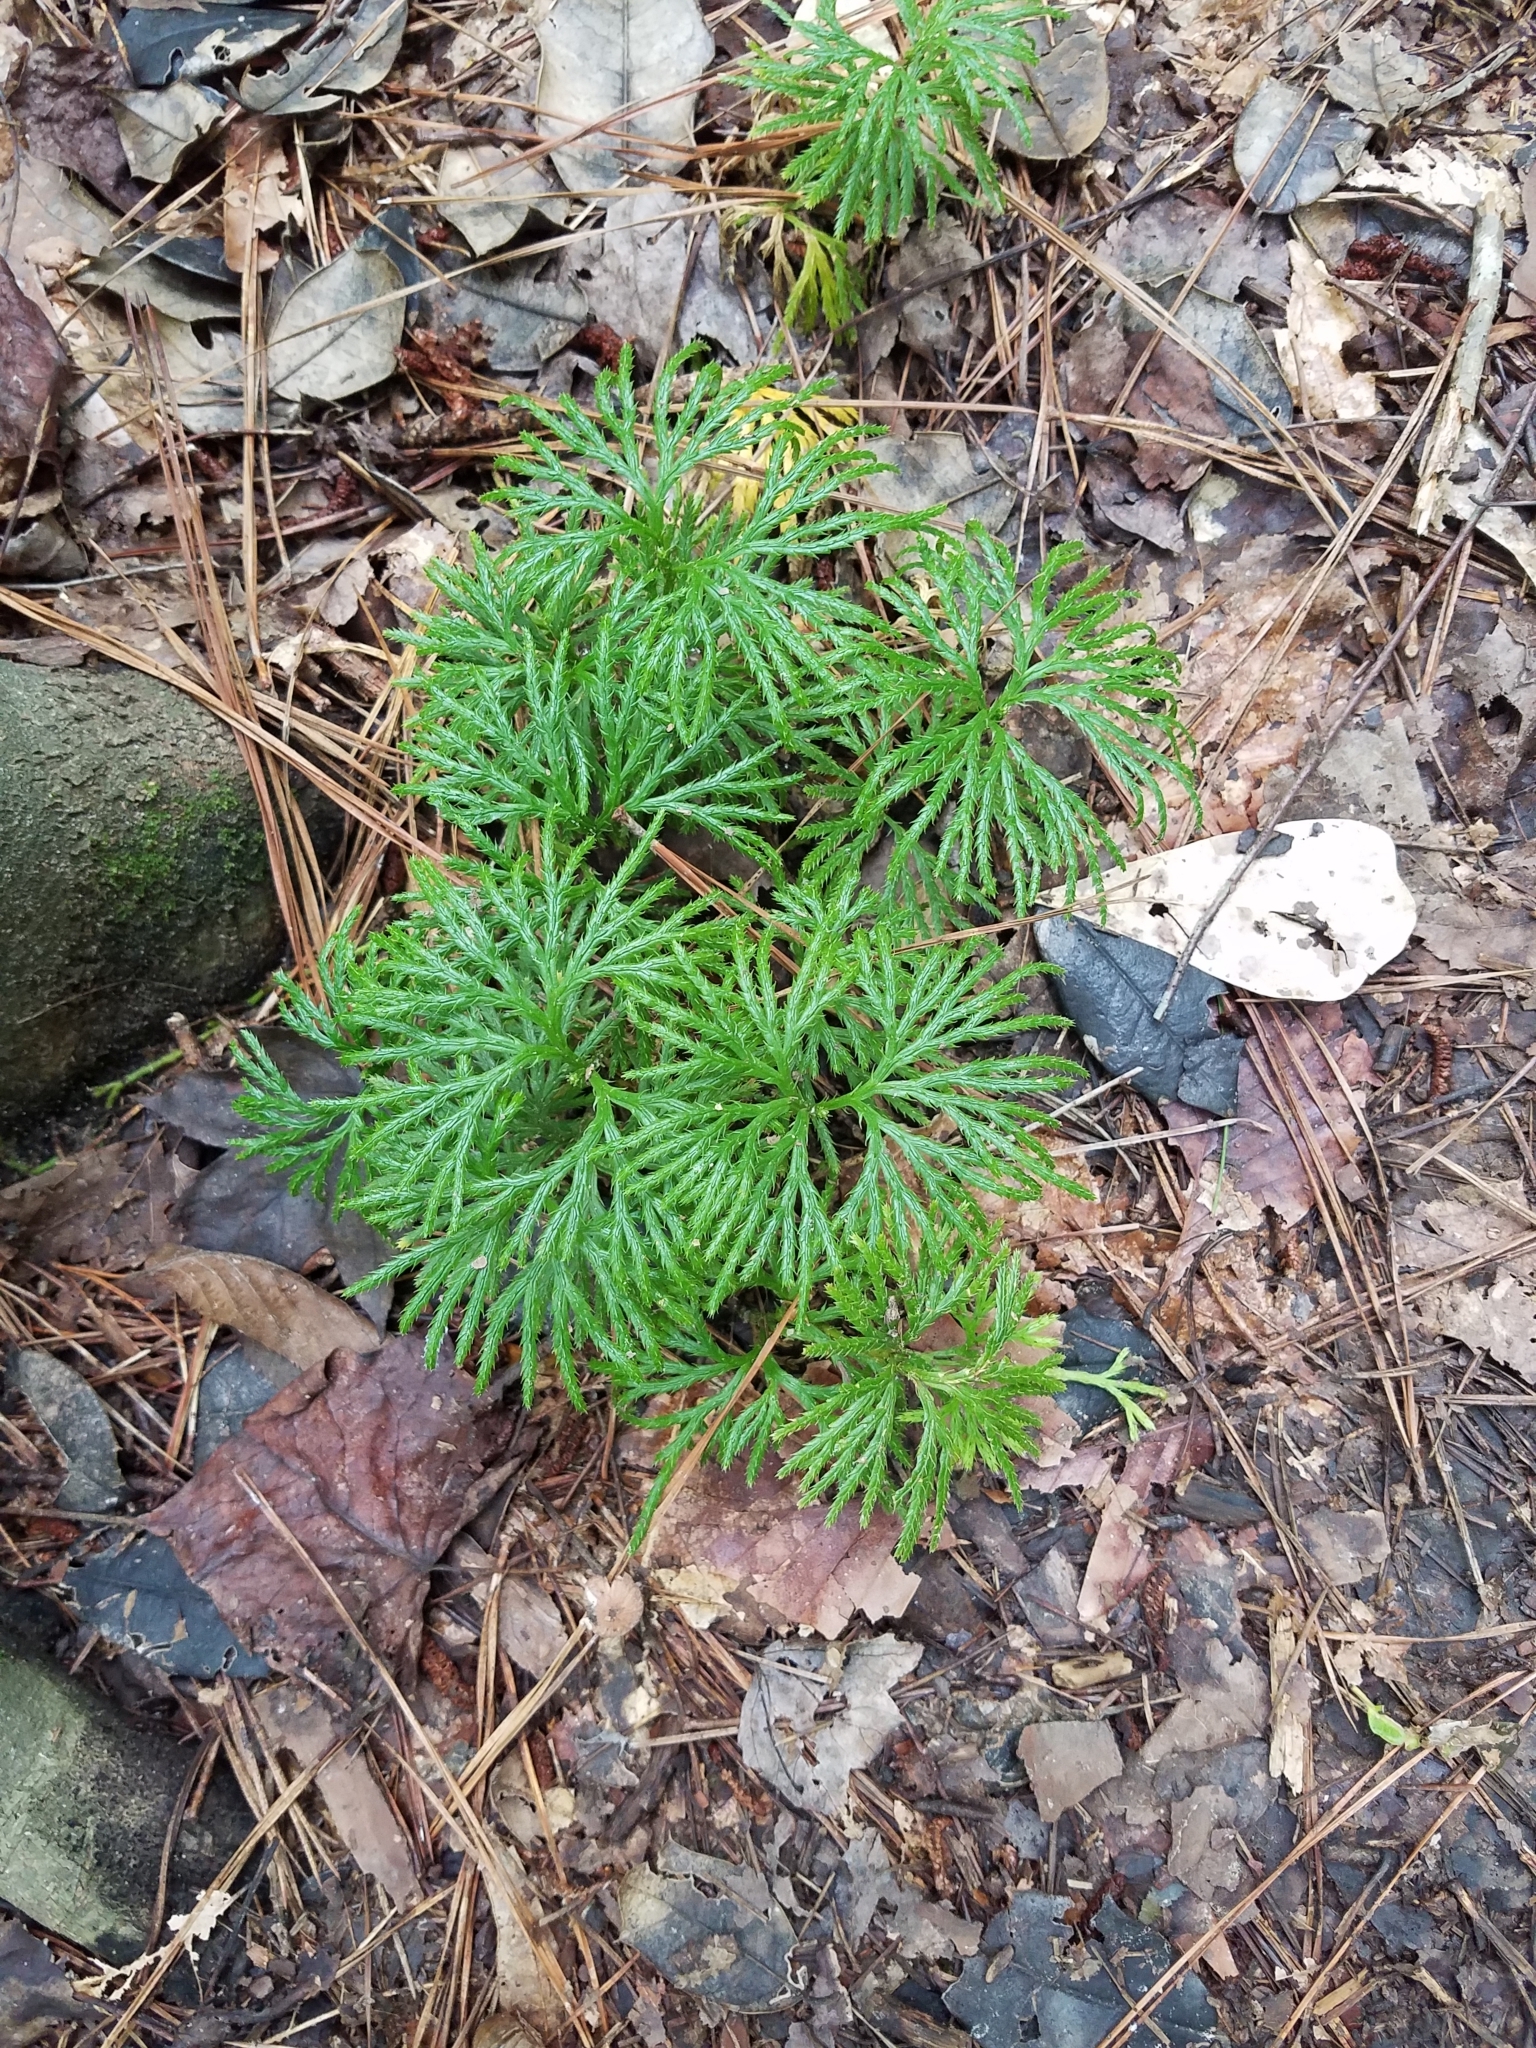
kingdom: Plantae
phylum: Tracheophyta
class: Lycopodiopsida
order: Lycopodiales
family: Lycopodiaceae
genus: Diphasiastrum
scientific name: Diphasiastrum digitatum
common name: Southern running-pine
